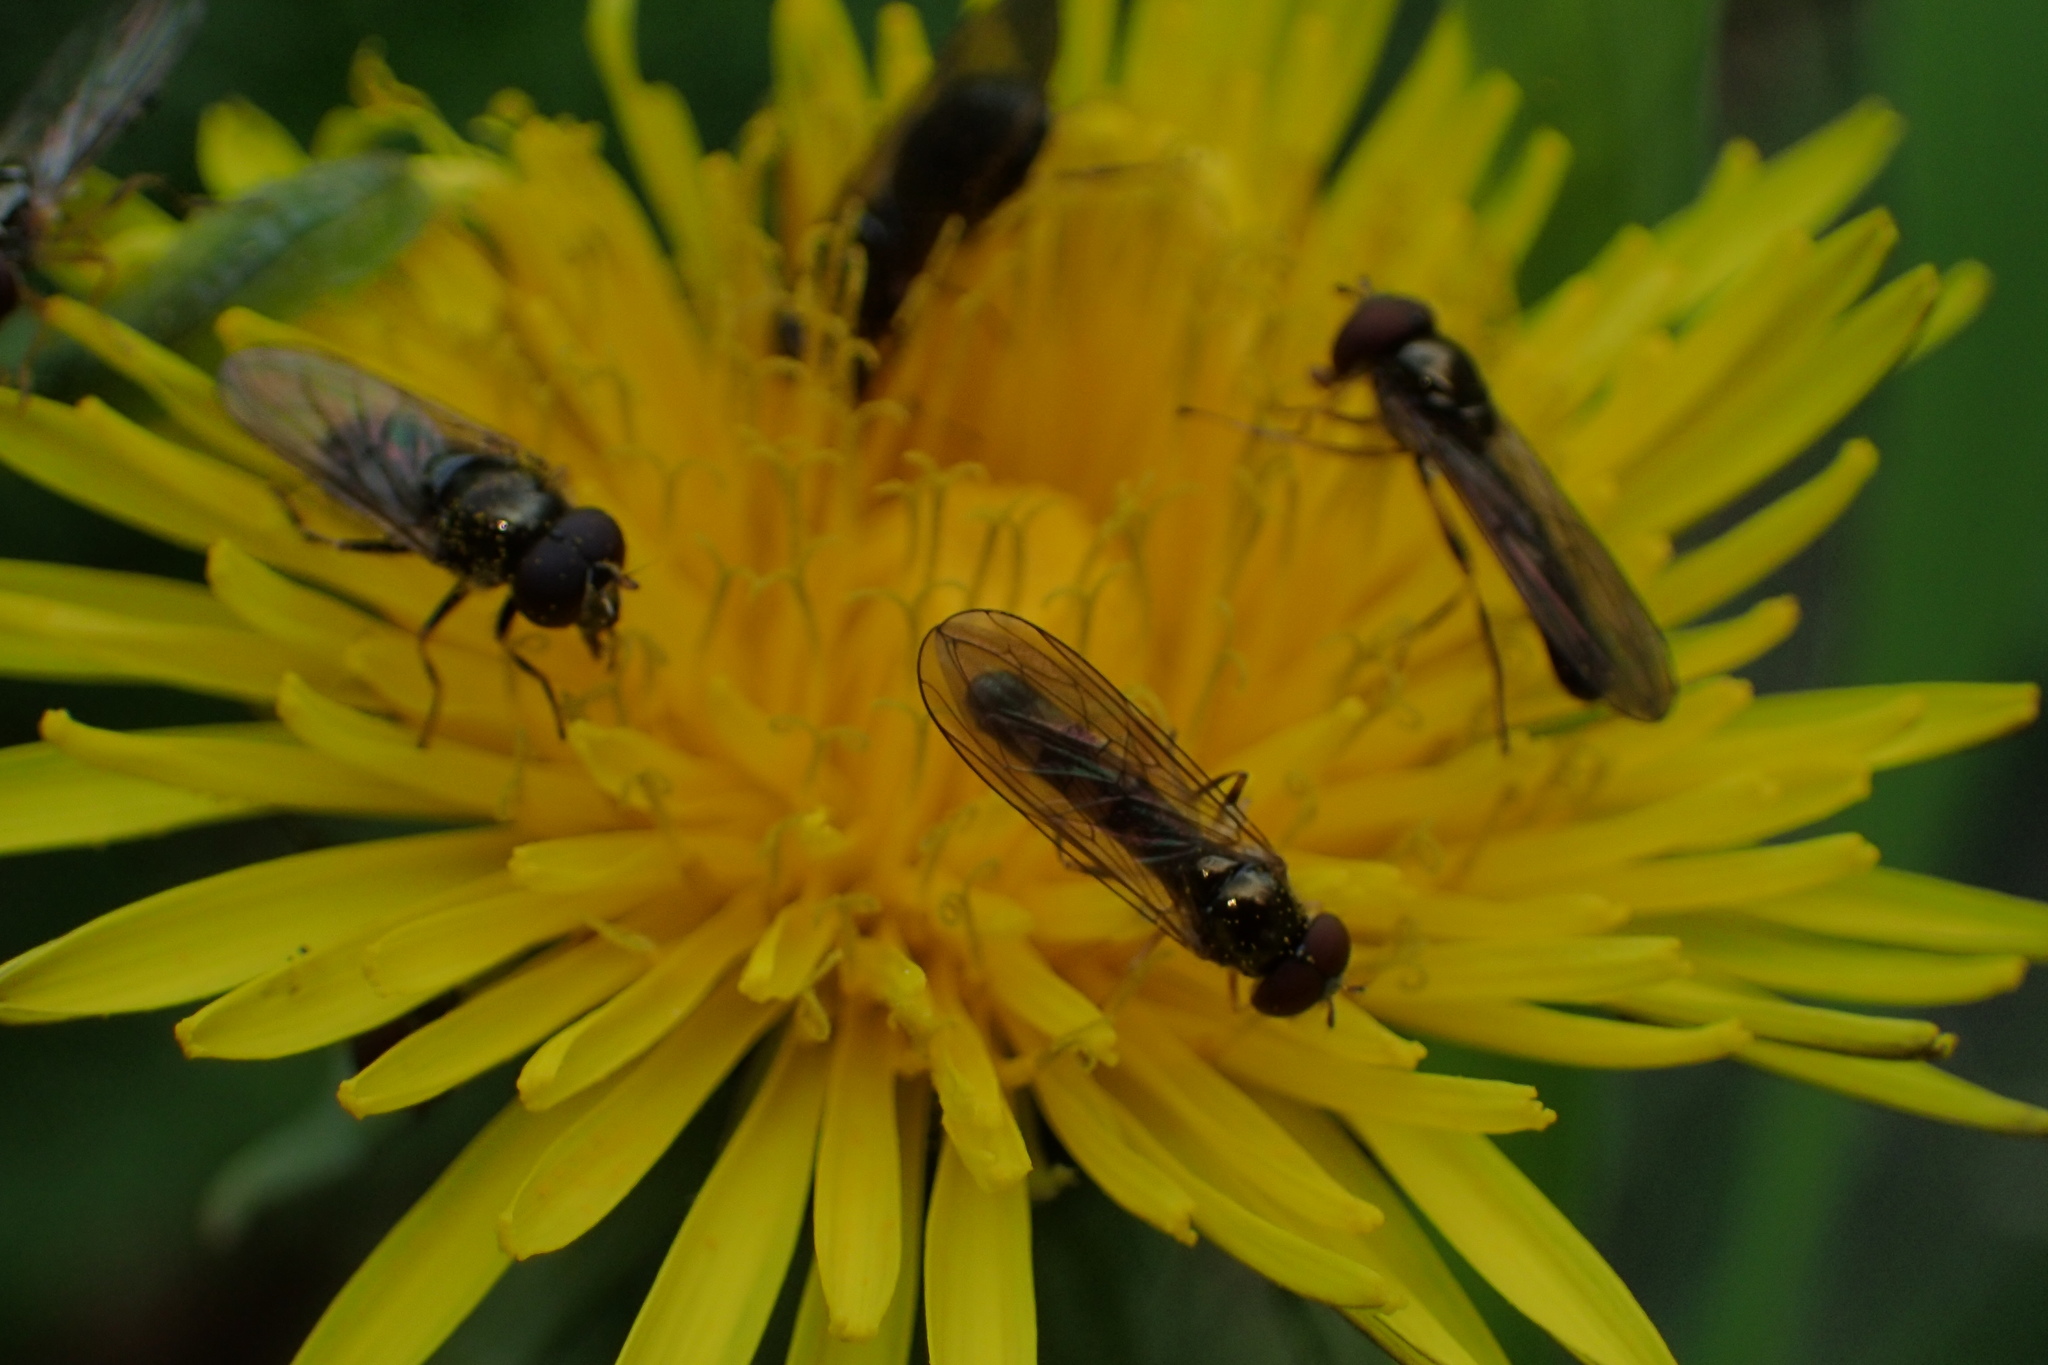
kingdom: Animalia
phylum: Arthropoda
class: Insecta
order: Diptera
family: Syrphidae
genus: Melanostoma
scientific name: Melanostoma mellina
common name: Hover fly
